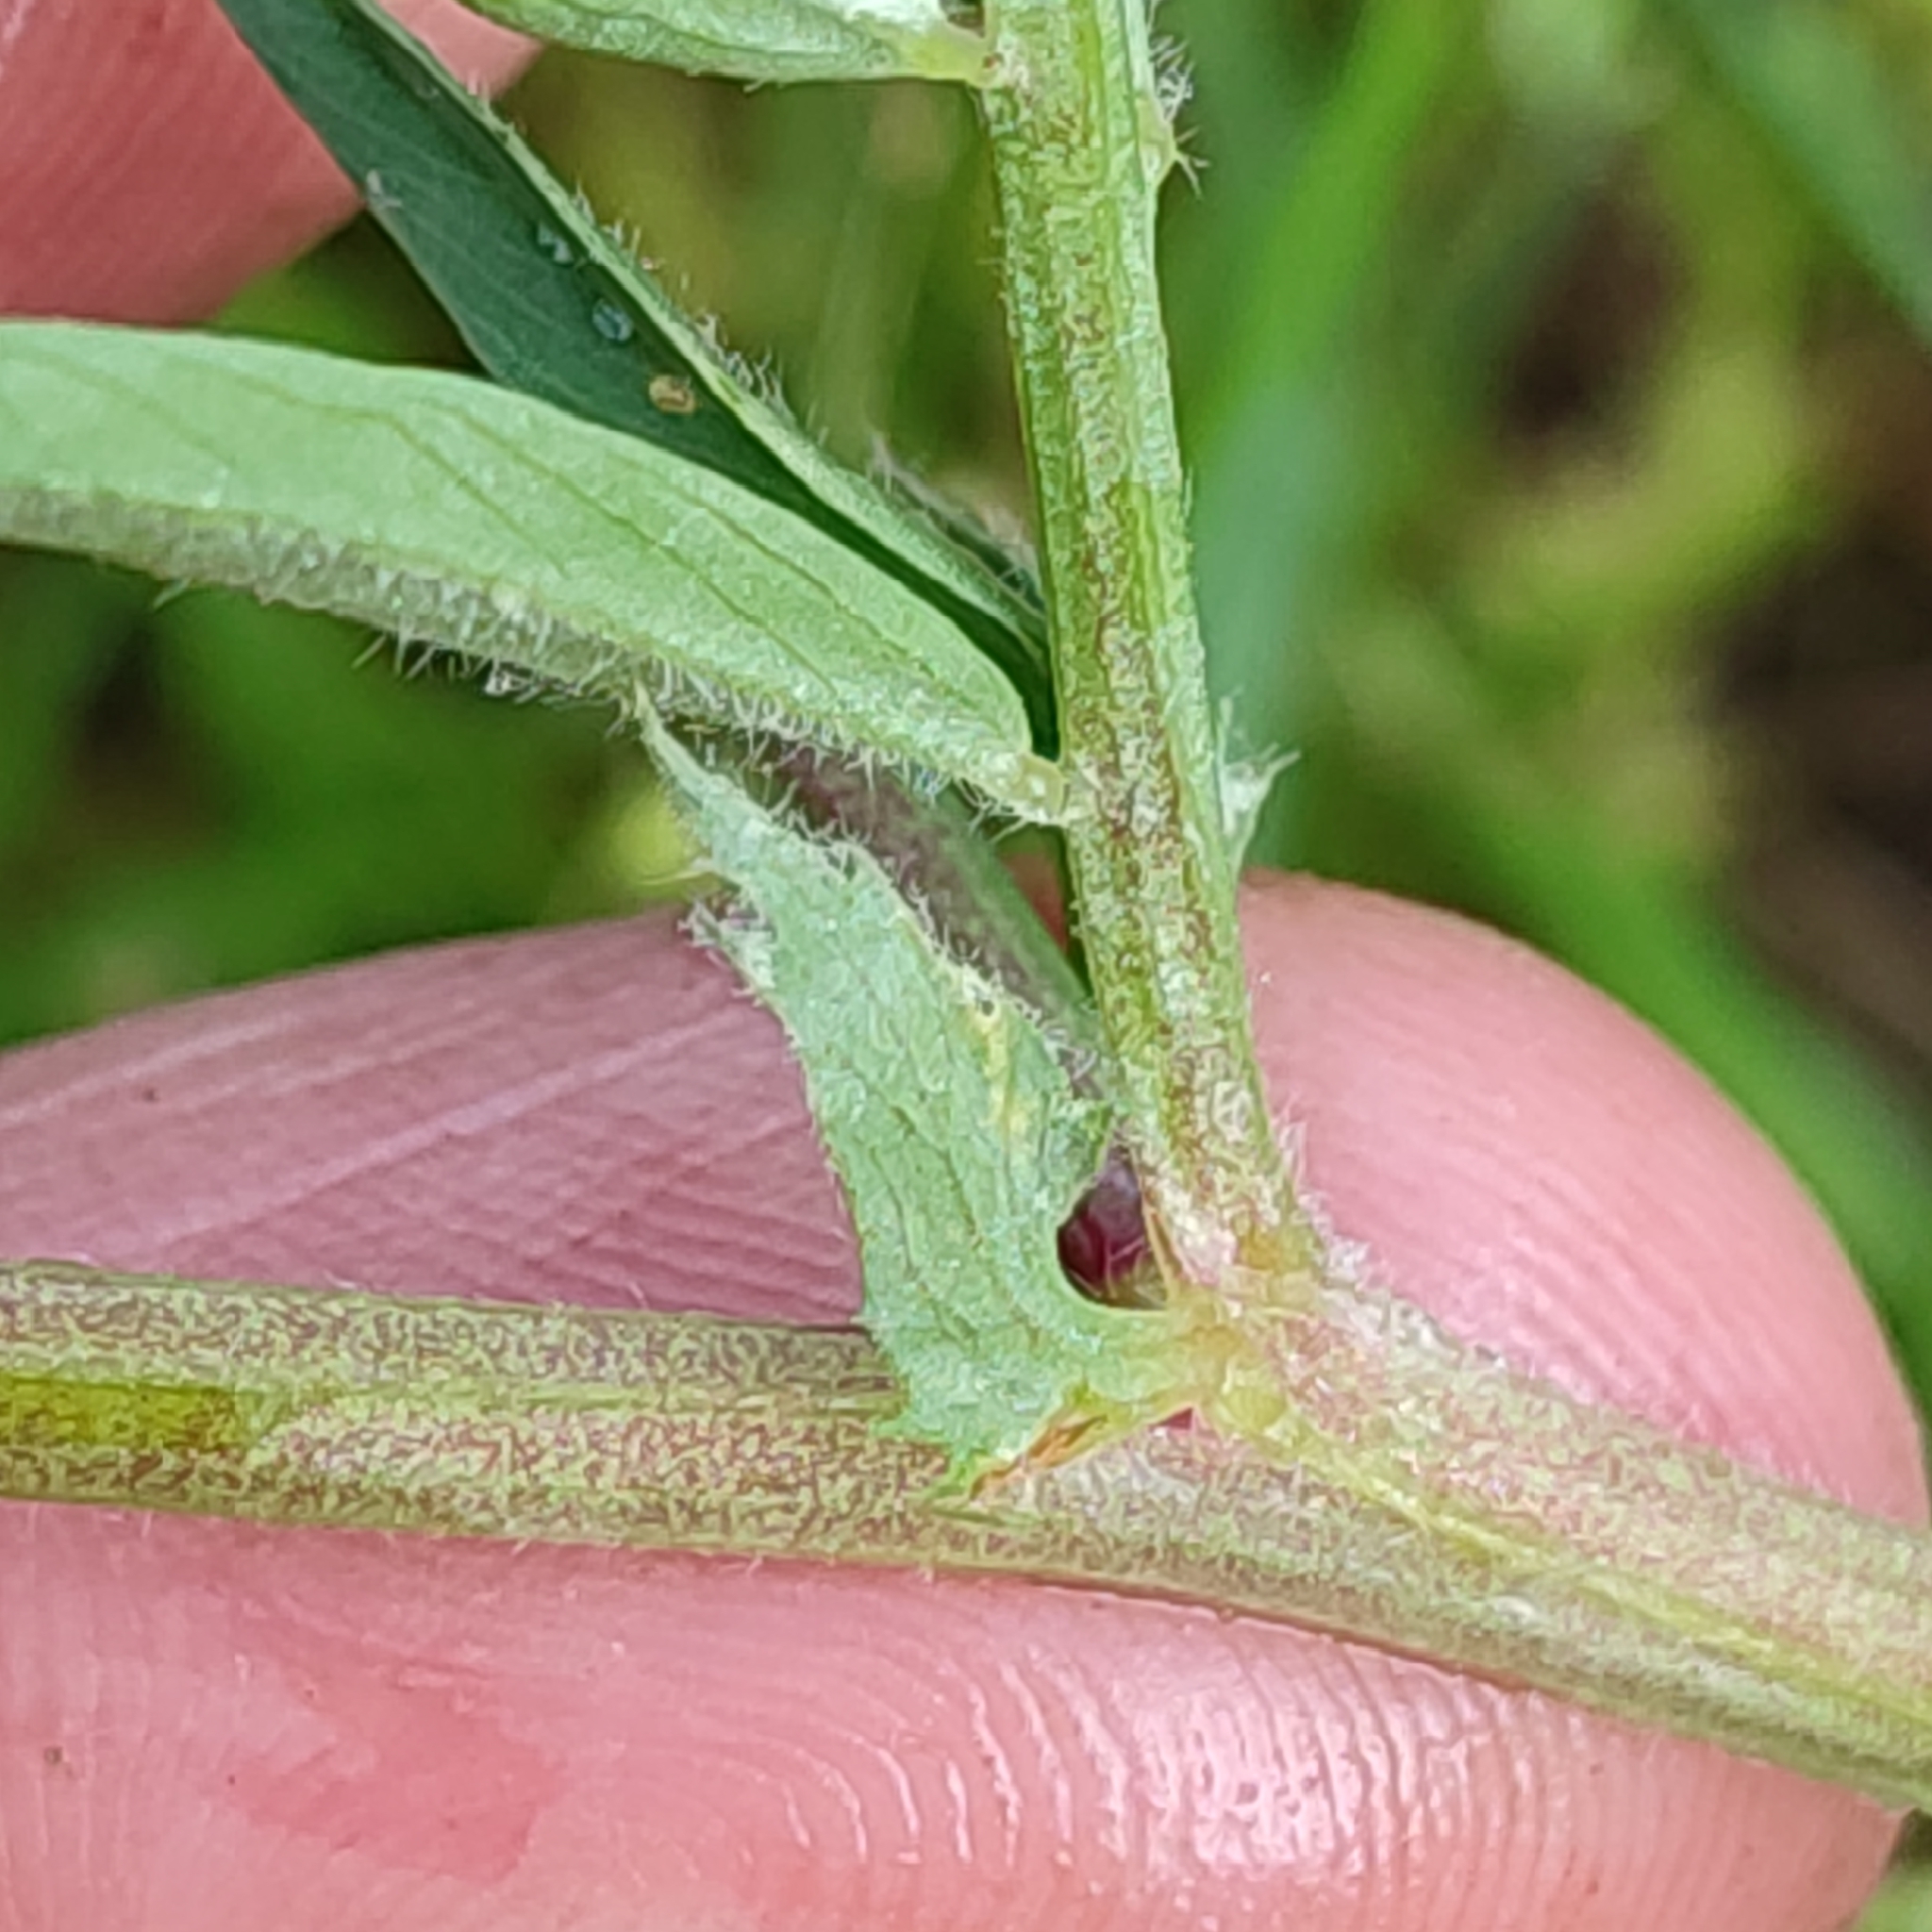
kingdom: Plantae
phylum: Tracheophyta
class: Magnoliopsida
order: Fabales
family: Fabaceae
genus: Vicia
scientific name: Vicia onobrychioides
